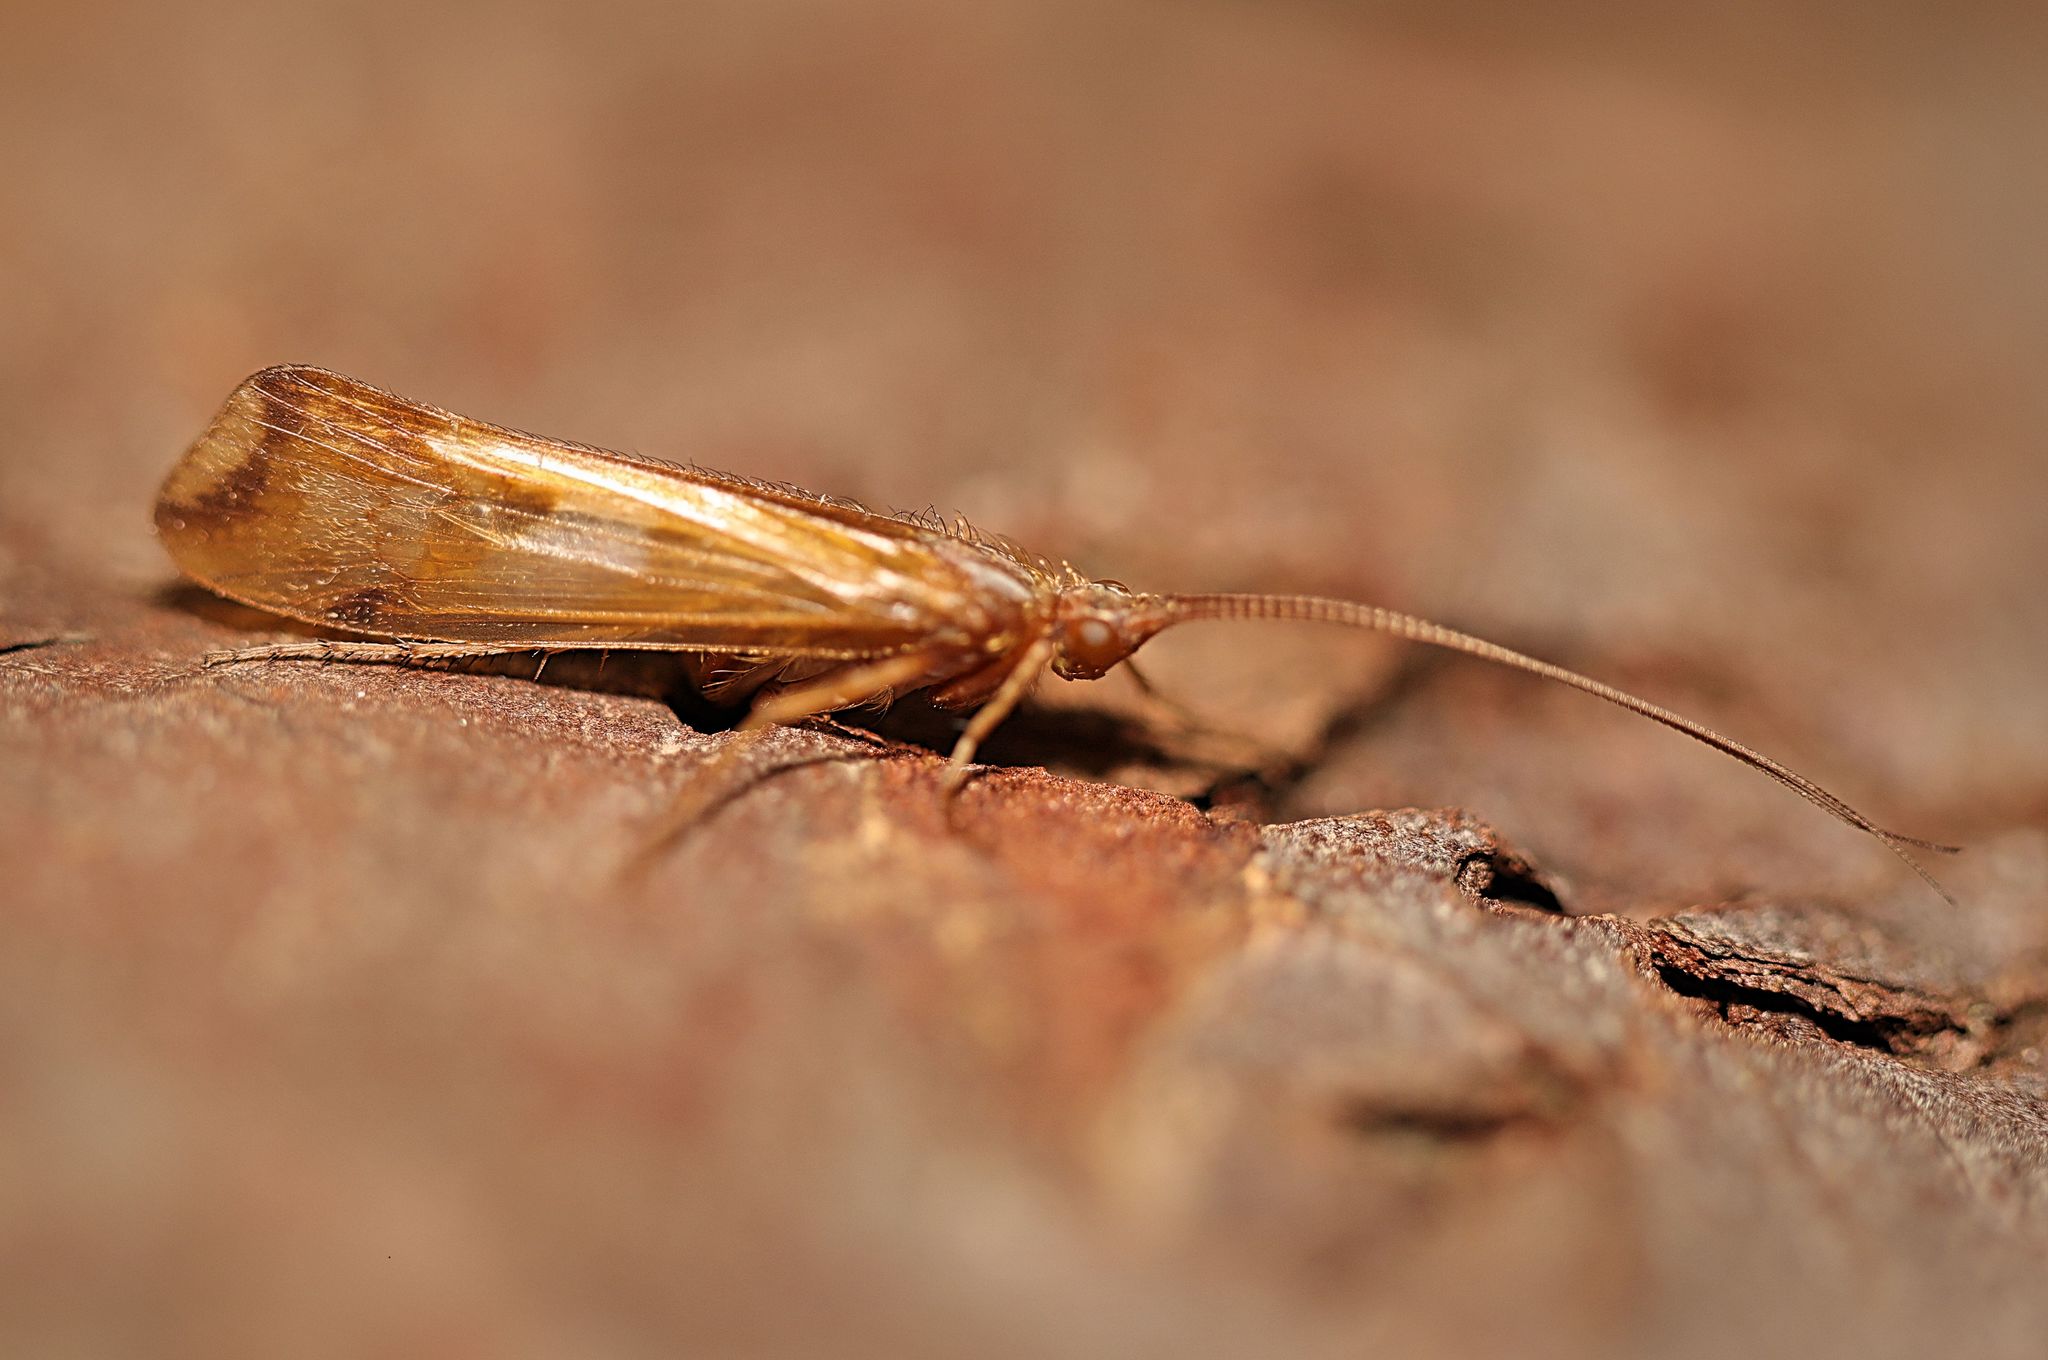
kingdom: Animalia
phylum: Arthropoda
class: Insecta
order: Trichoptera
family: Limnephilidae
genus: Limnephilus
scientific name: Limnephilus lunatus
